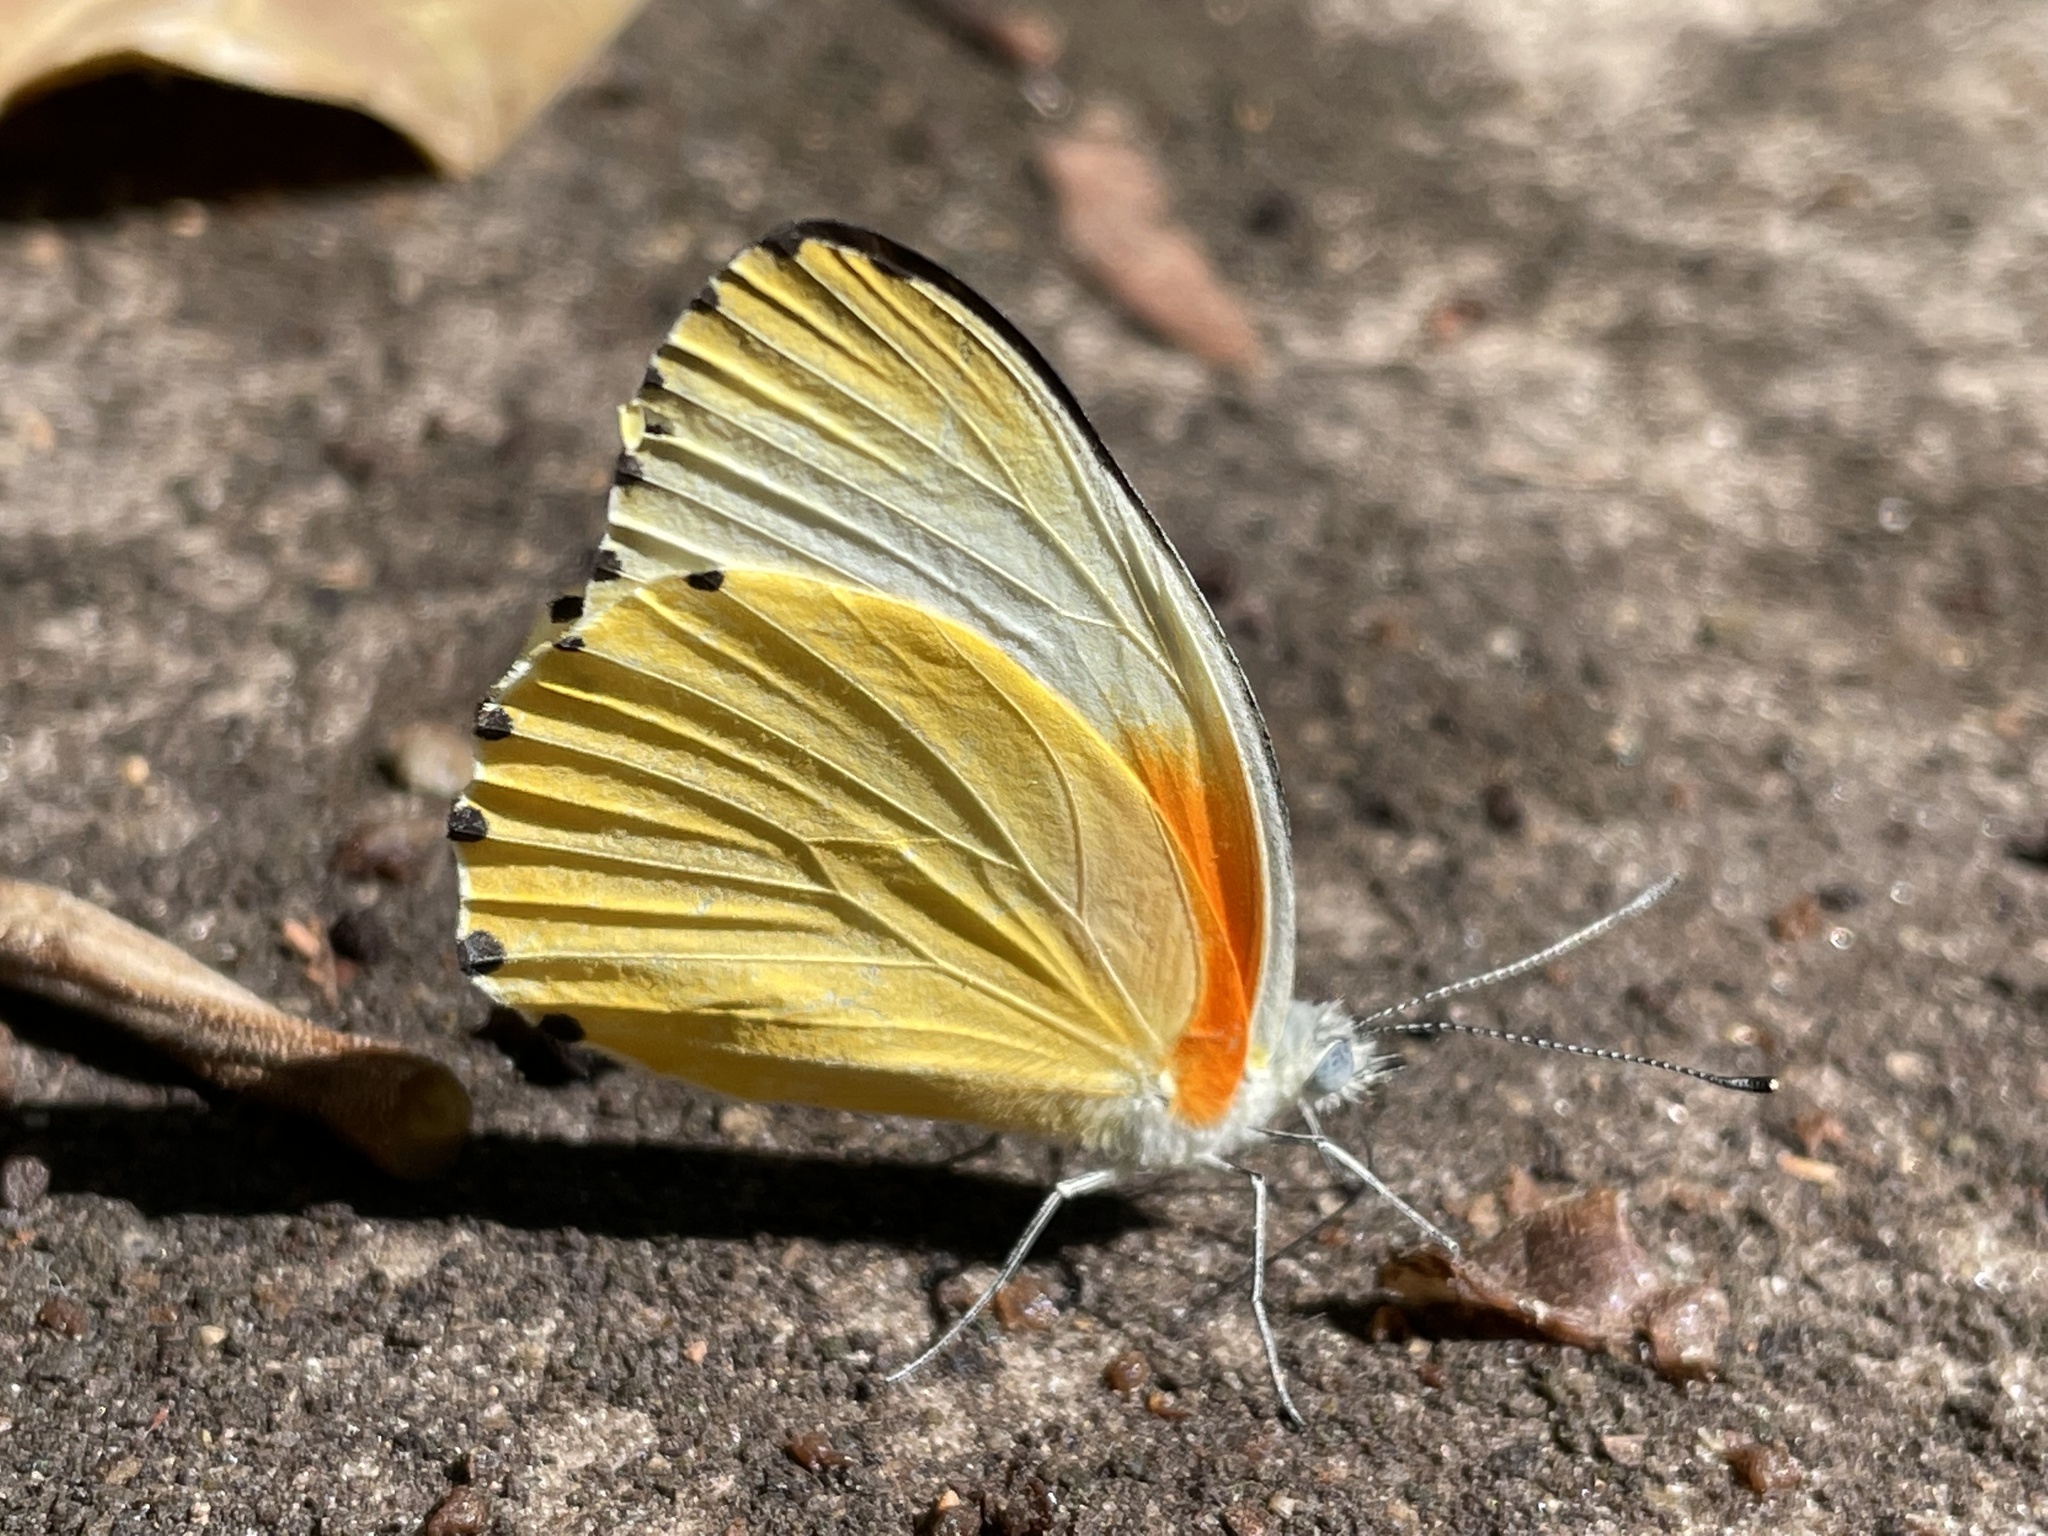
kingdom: Animalia
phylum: Arthropoda
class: Insecta
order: Lepidoptera
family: Pieridae
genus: Mylothris
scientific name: Mylothris agathina
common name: Eastern dotted border
